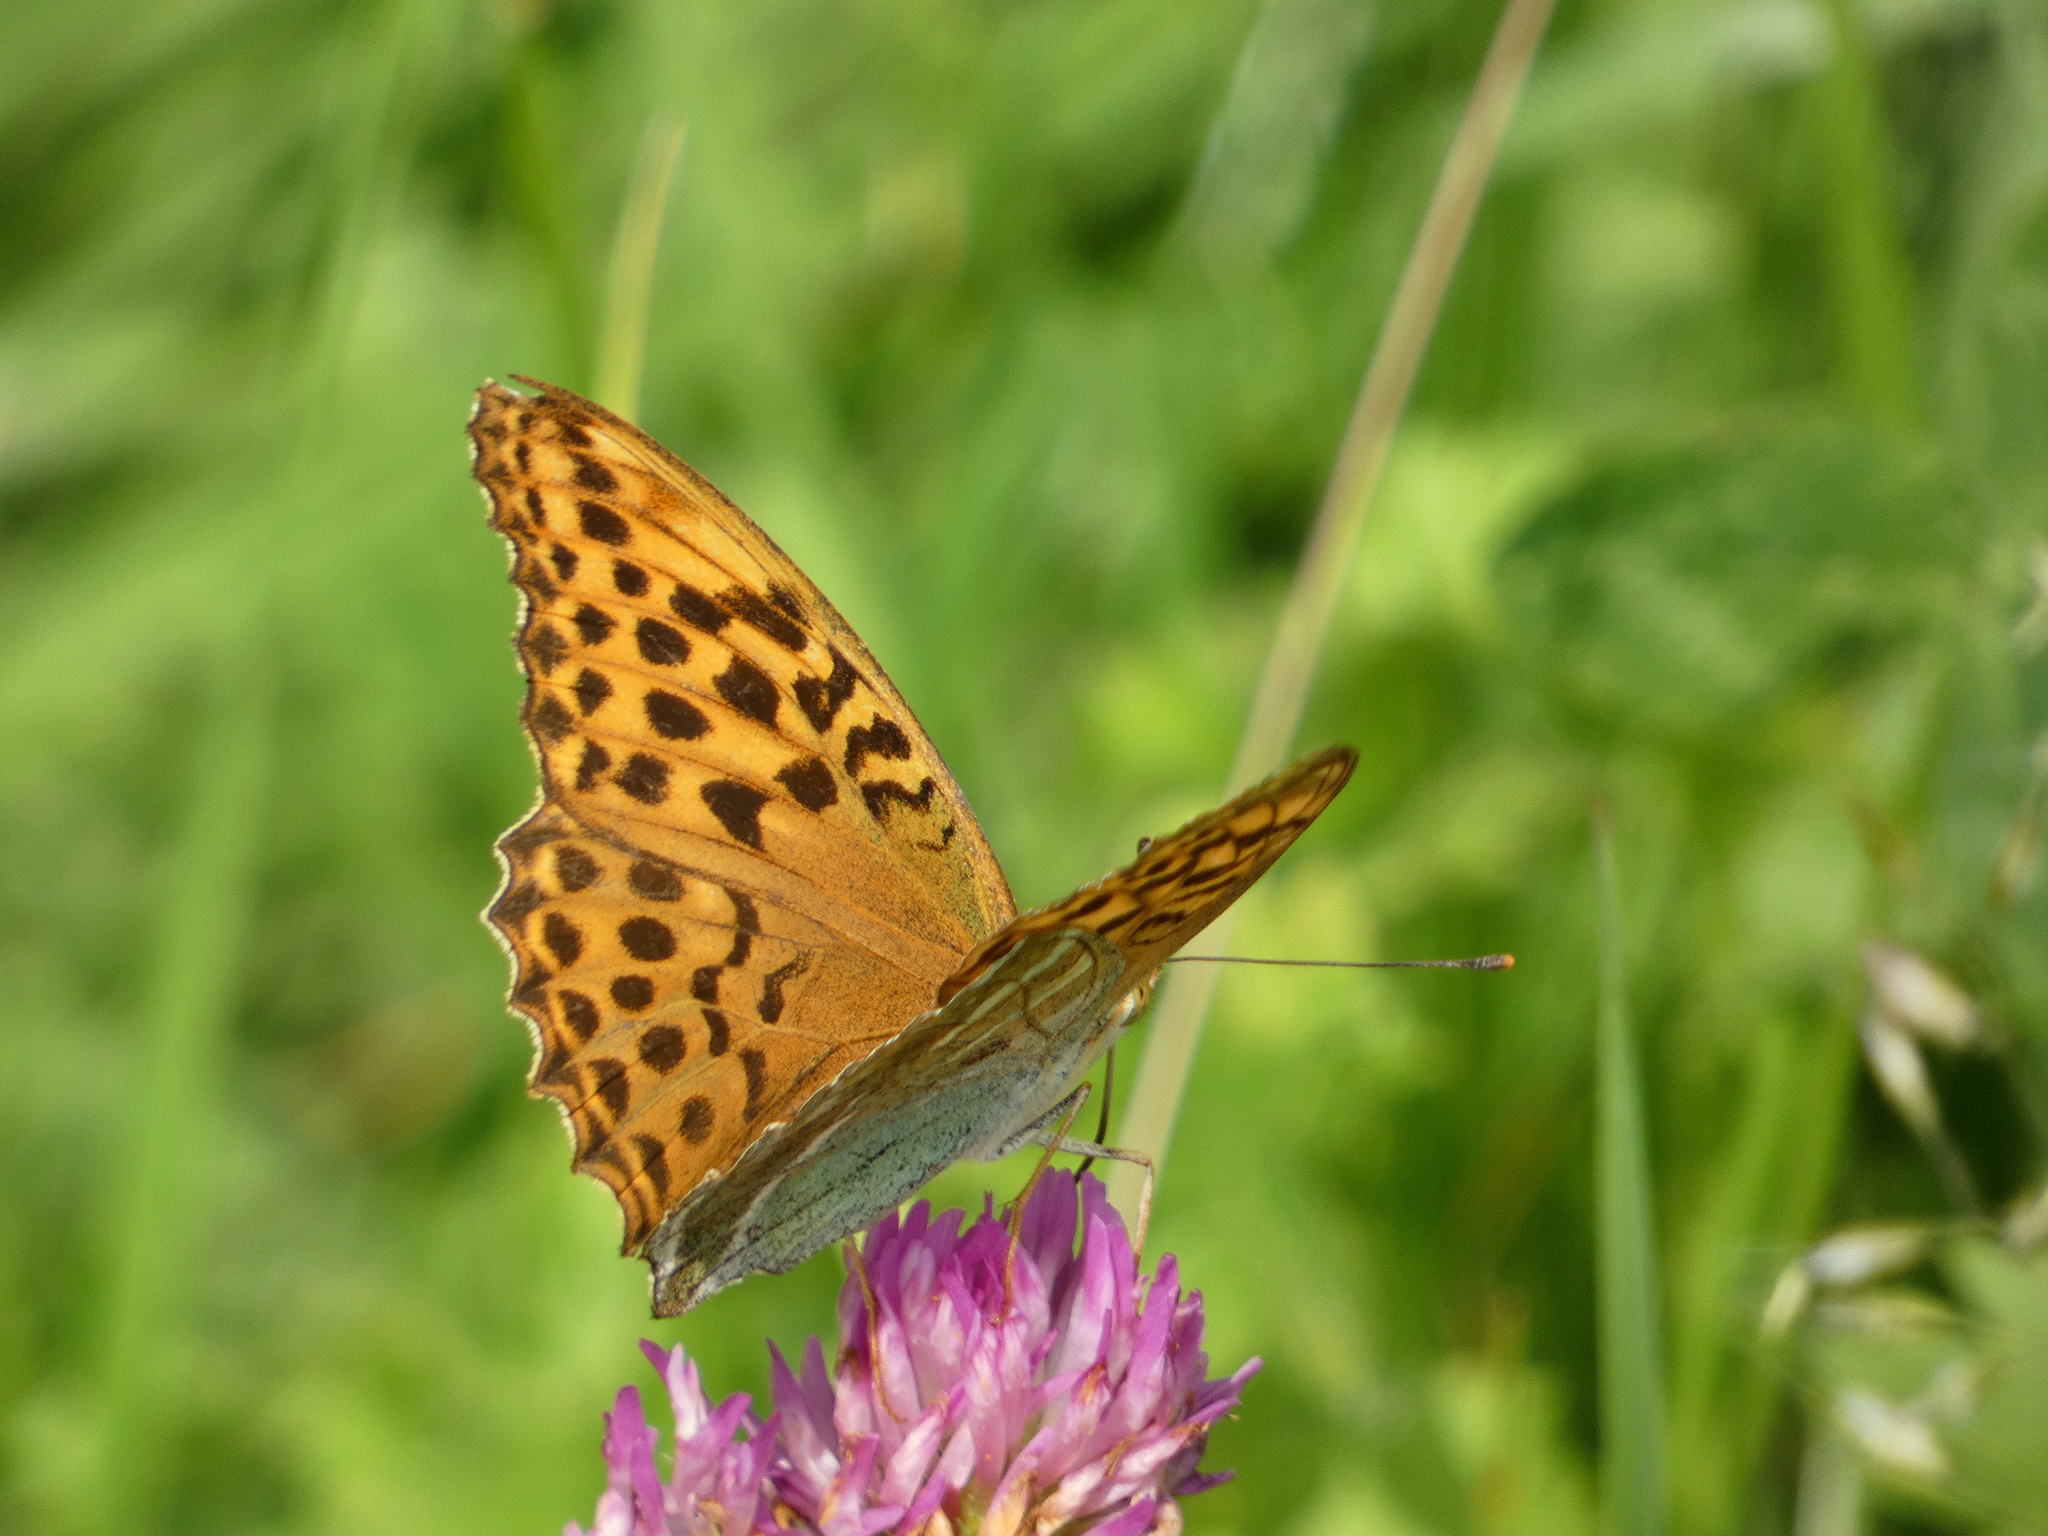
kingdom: Animalia
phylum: Arthropoda
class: Insecta
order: Lepidoptera
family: Nymphalidae
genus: Argynnis
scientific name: Argynnis paphia
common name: Silver-washed fritillary
